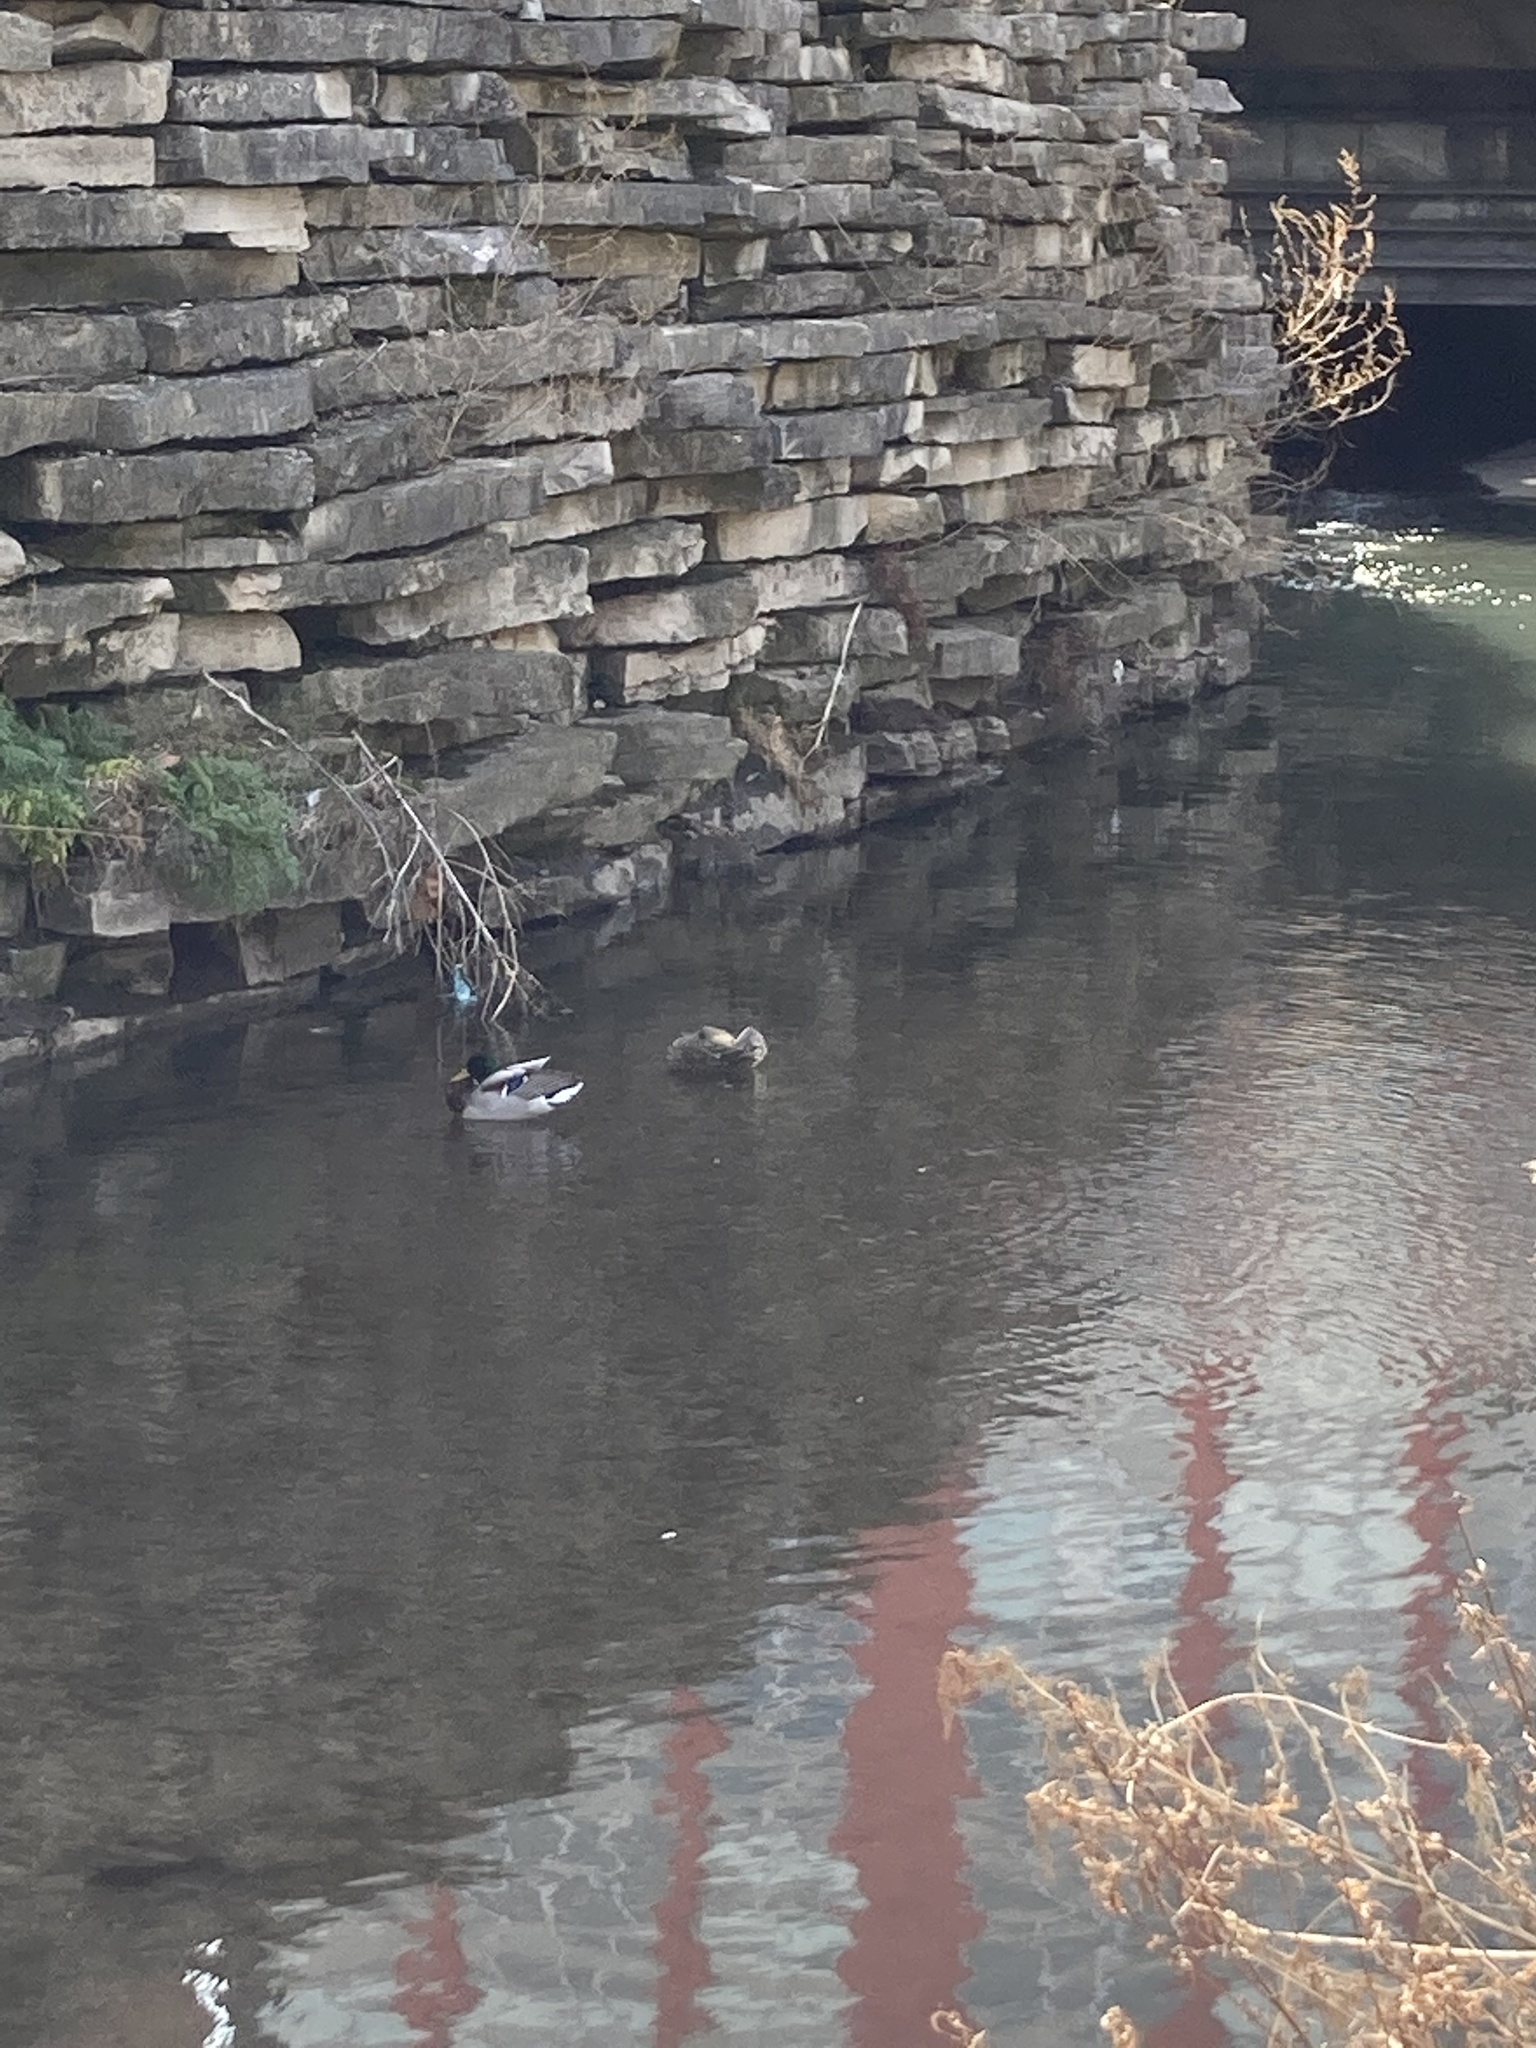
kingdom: Animalia
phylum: Chordata
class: Aves
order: Anseriformes
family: Anatidae
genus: Anas
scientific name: Anas platyrhynchos
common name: Mallard
